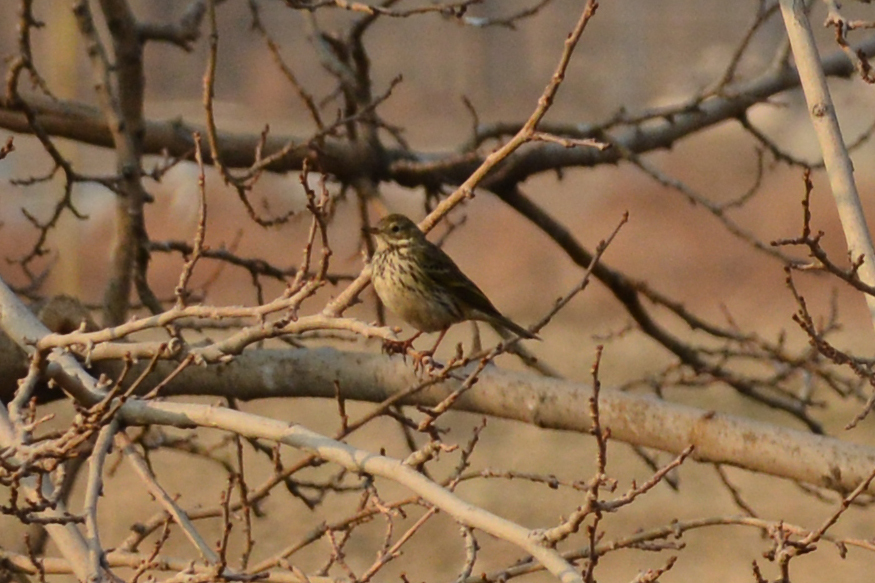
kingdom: Animalia
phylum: Chordata
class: Aves
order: Passeriformes
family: Motacillidae
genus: Anthus
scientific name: Anthus pratensis
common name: Meadow pipit
